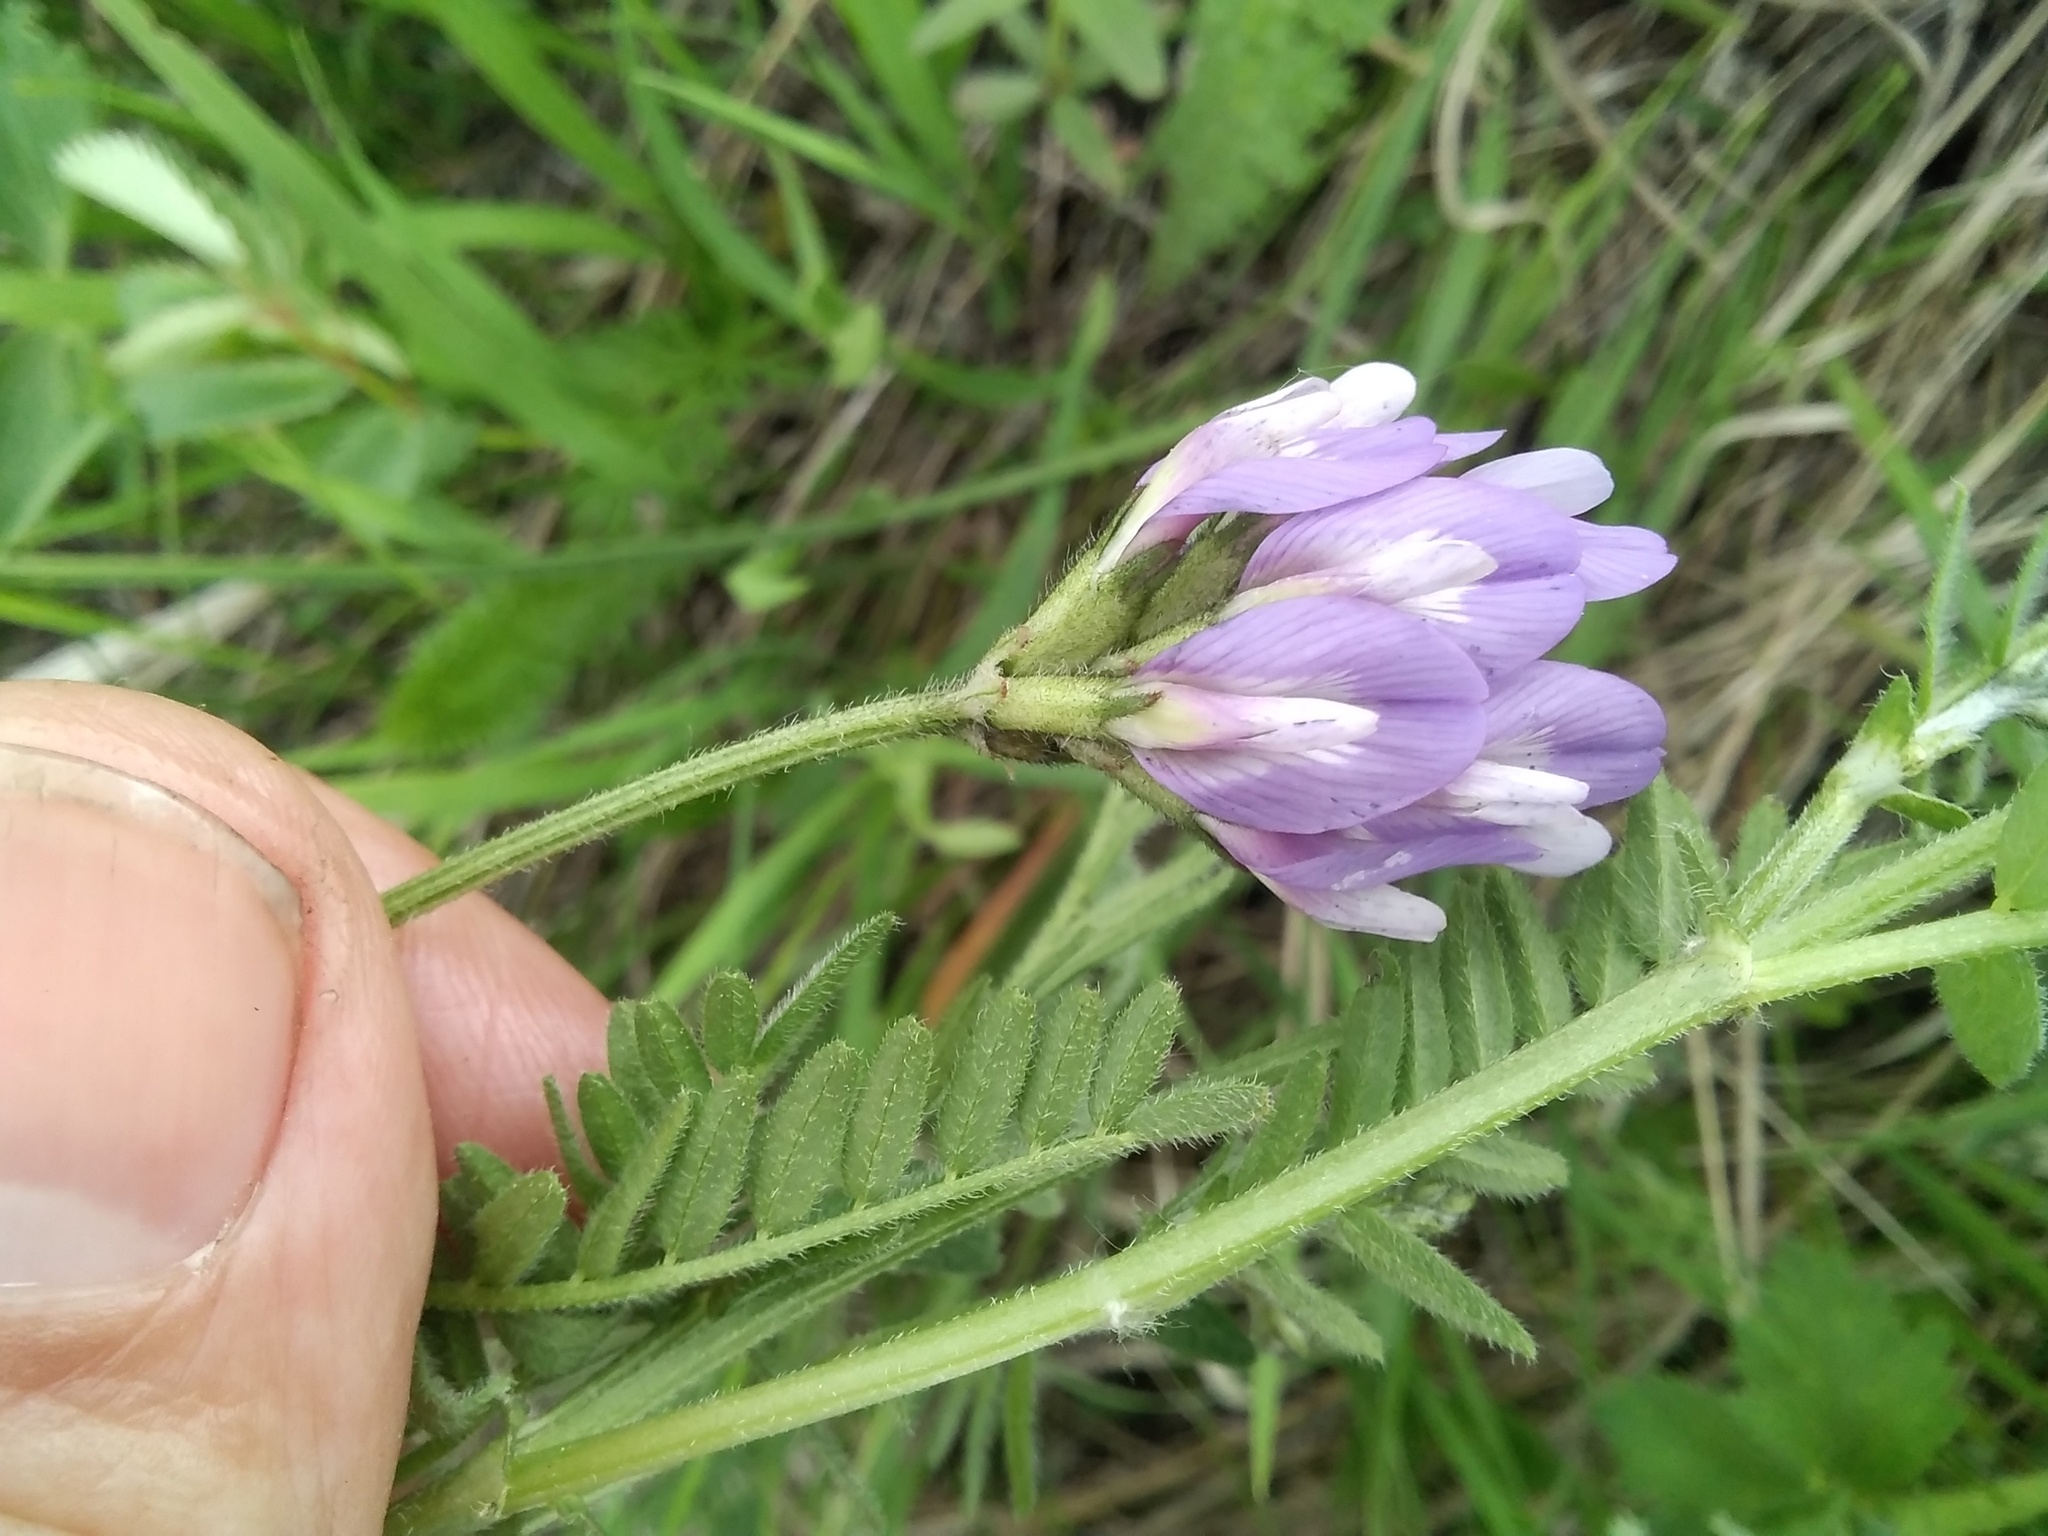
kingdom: Plantae
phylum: Tracheophyta
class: Magnoliopsida
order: Fabales
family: Fabaceae
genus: Astragalus
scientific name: Astragalus danicus
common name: Purple milk-vetch
